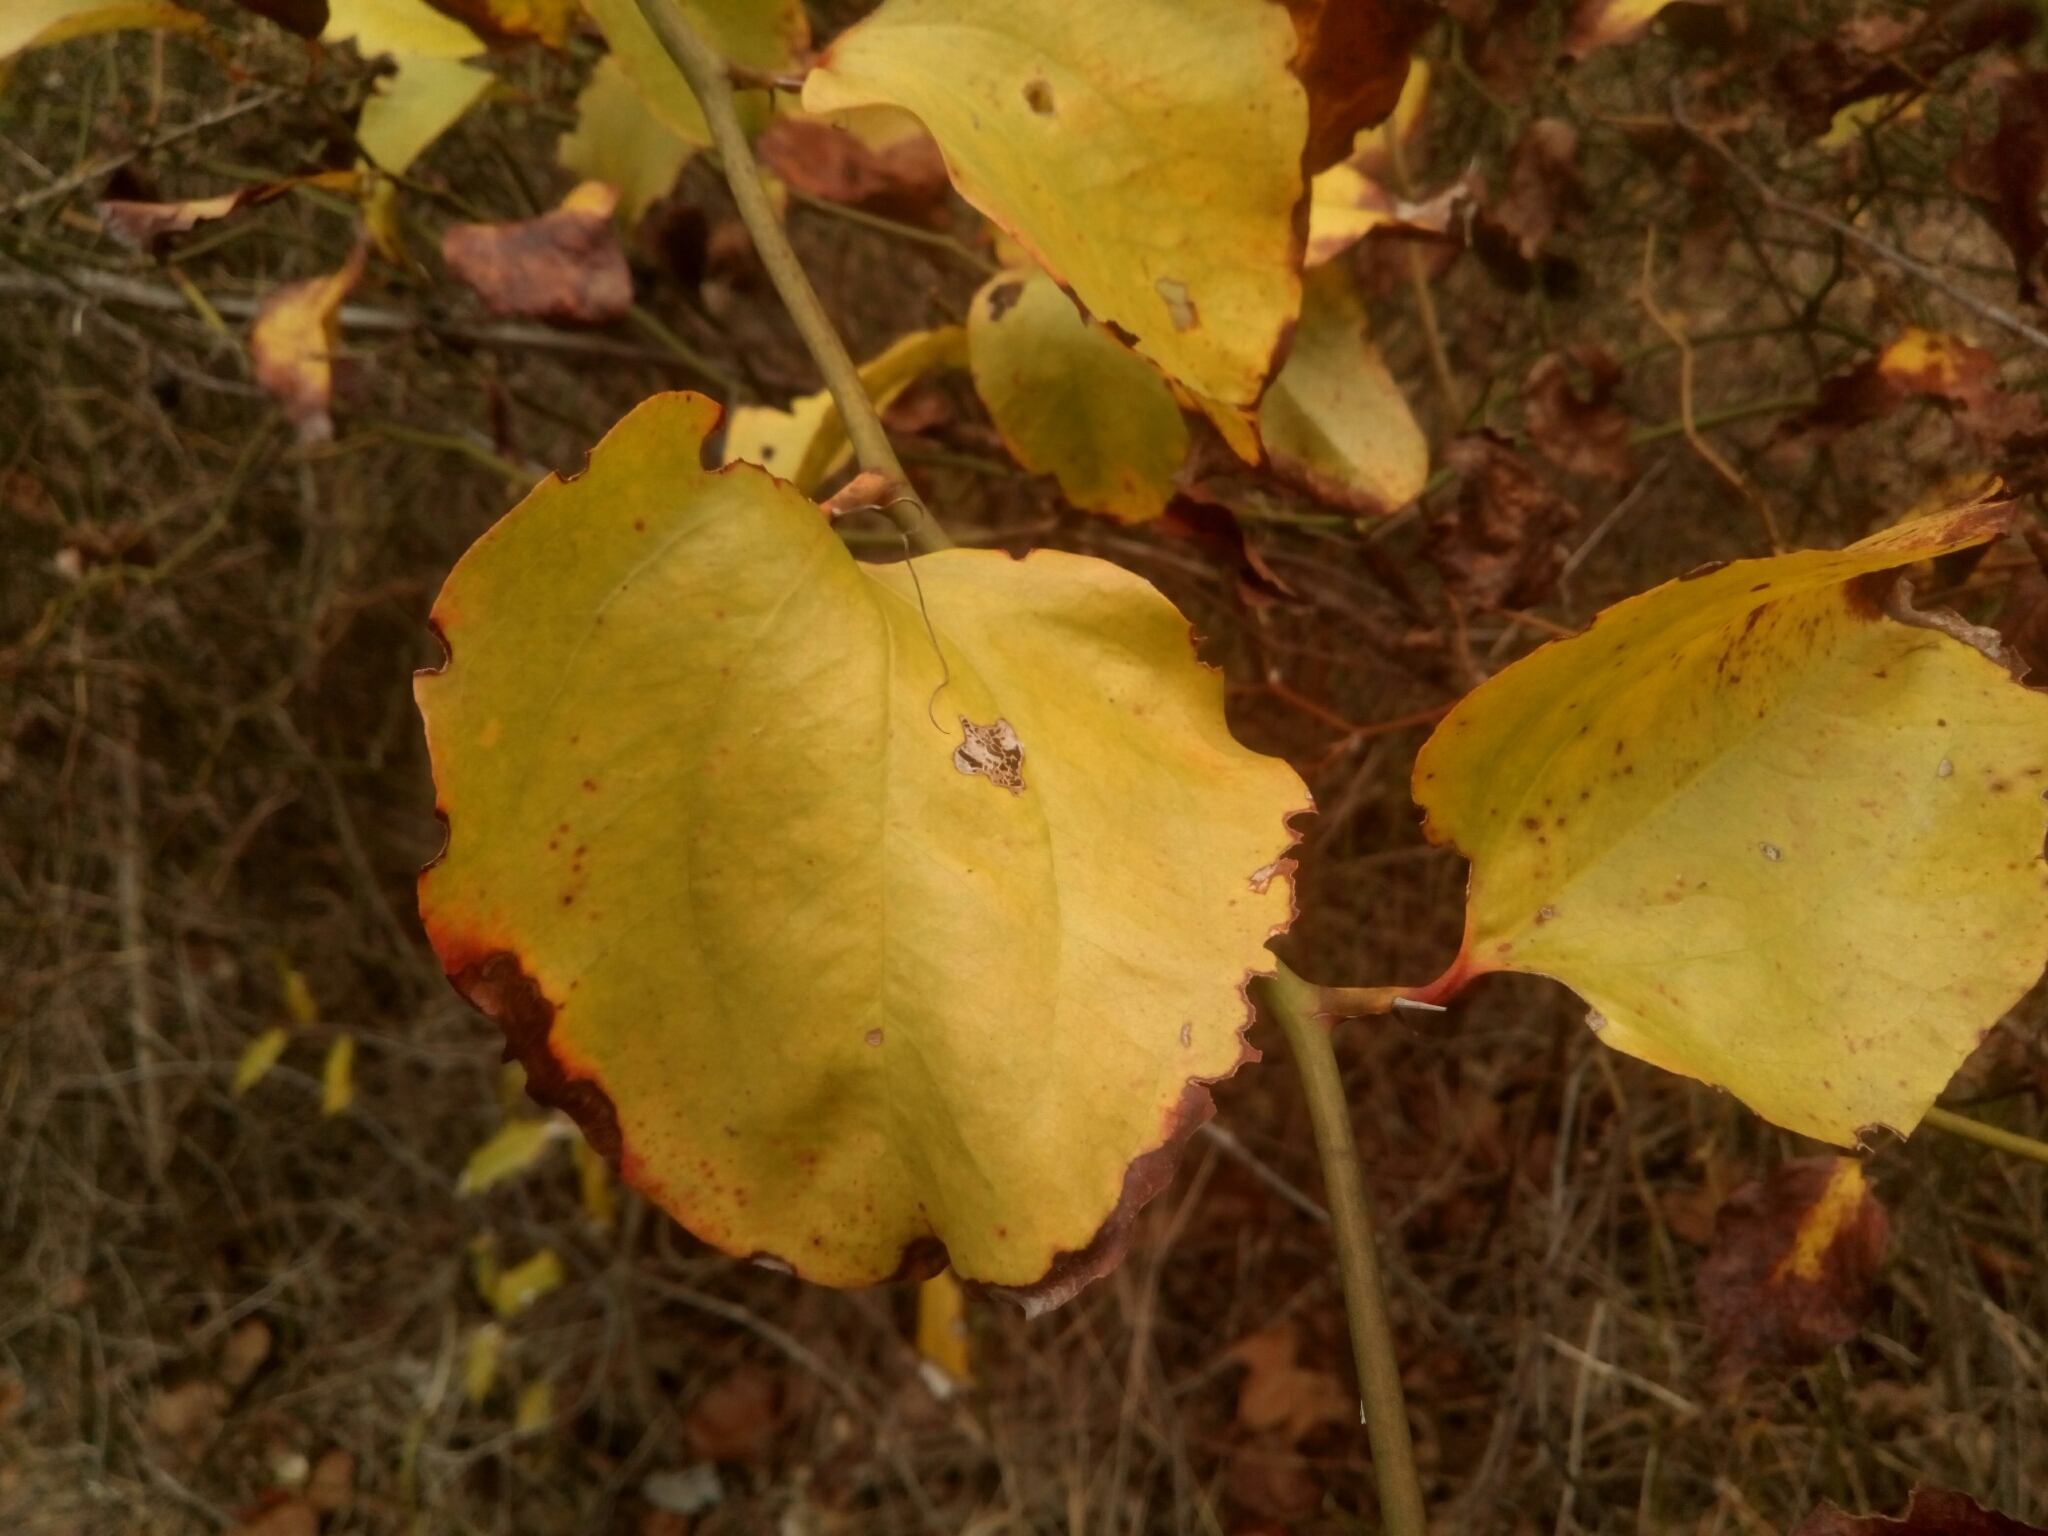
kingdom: Plantae
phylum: Tracheophyta
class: Liliopsida
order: Liliales
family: Smilacaceae
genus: Smilax
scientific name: Smilax rotundifolia
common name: Bullbriar
